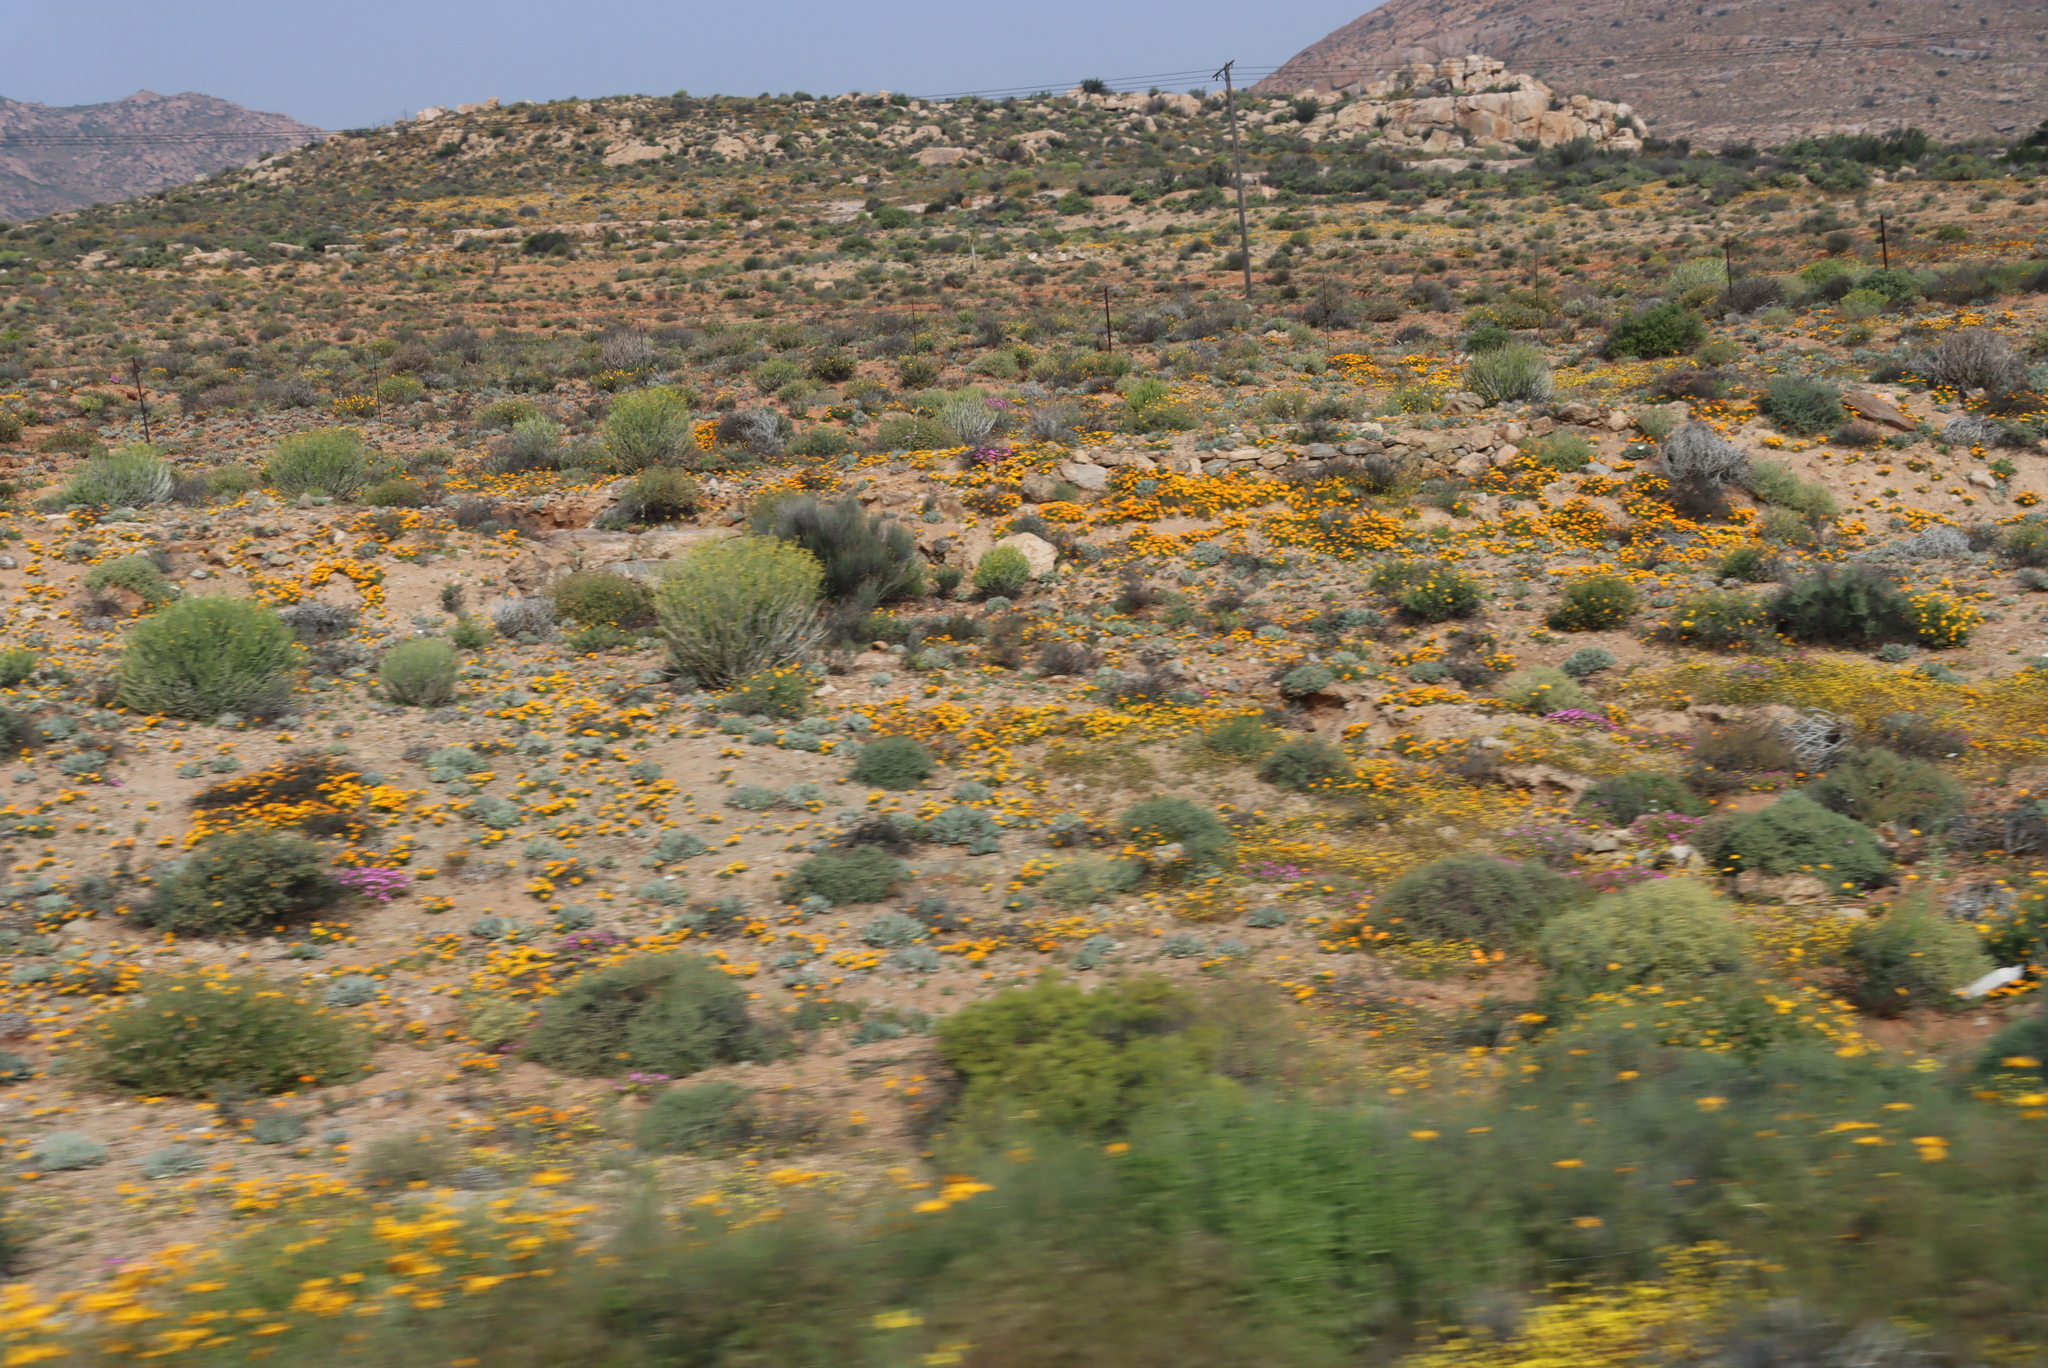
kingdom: Plantae
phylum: Tracheophyta
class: Magnoliopsida
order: Asterales
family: Asteraceae
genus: Dimorphotheca
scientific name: Dimorphotheca sinuata
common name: Glandular cape marigold
